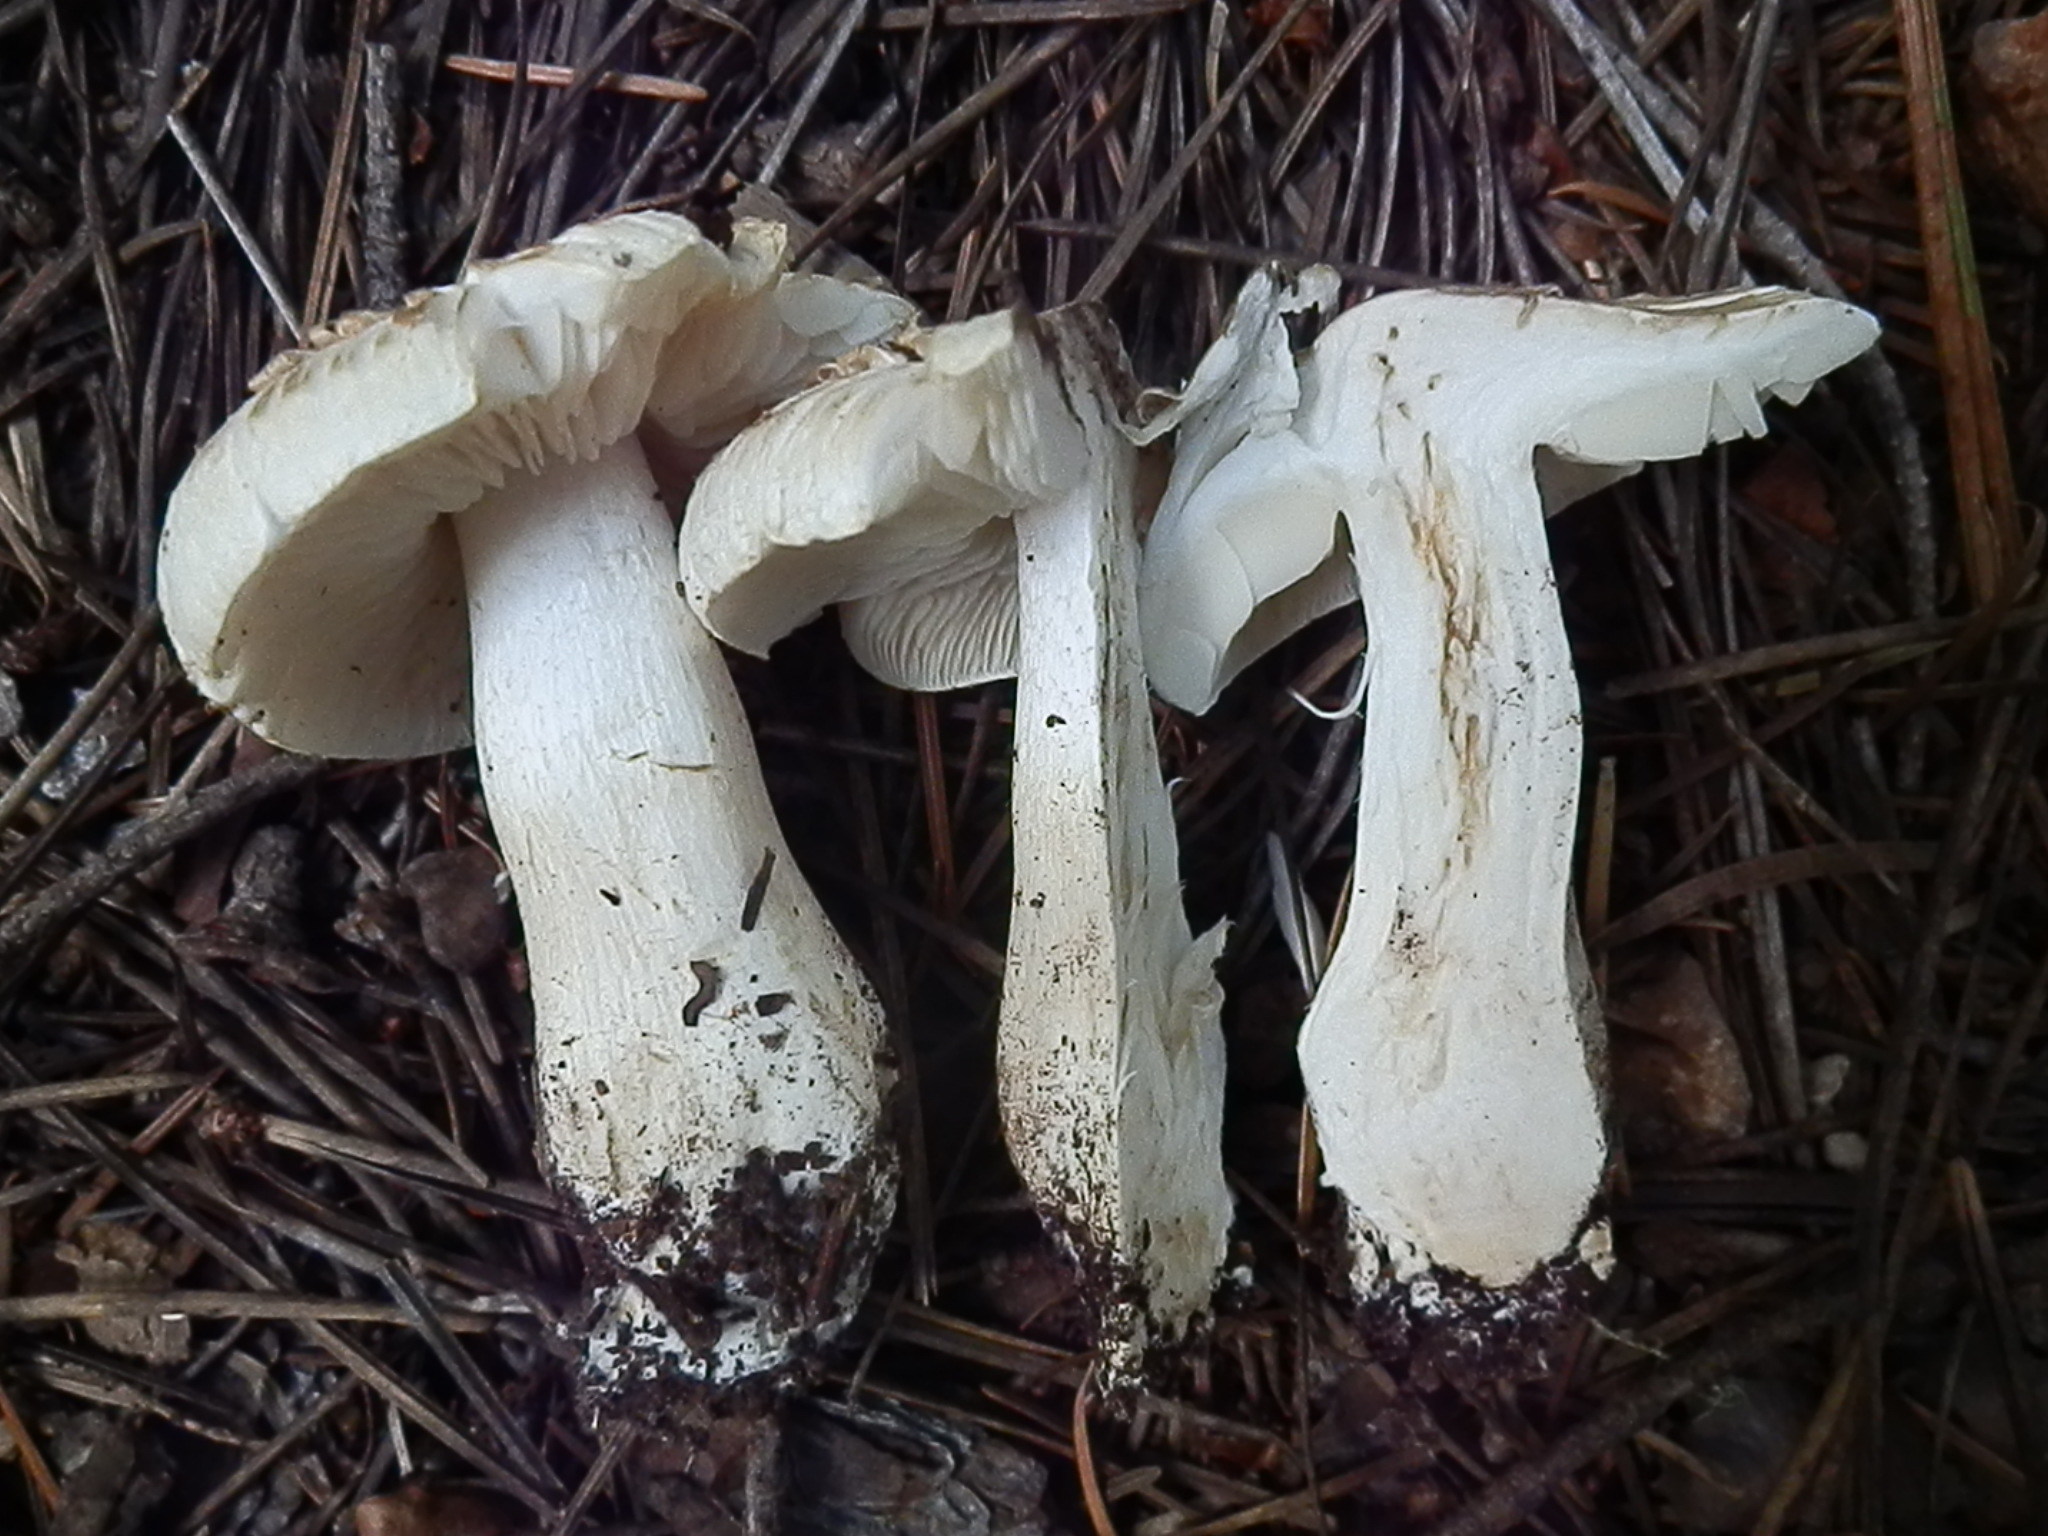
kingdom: Fungi
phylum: Basidiomycota
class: Agaricomycetes
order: Agaricales
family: Tricholomataceae
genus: Tricholoma
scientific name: Tricholoma smithii
